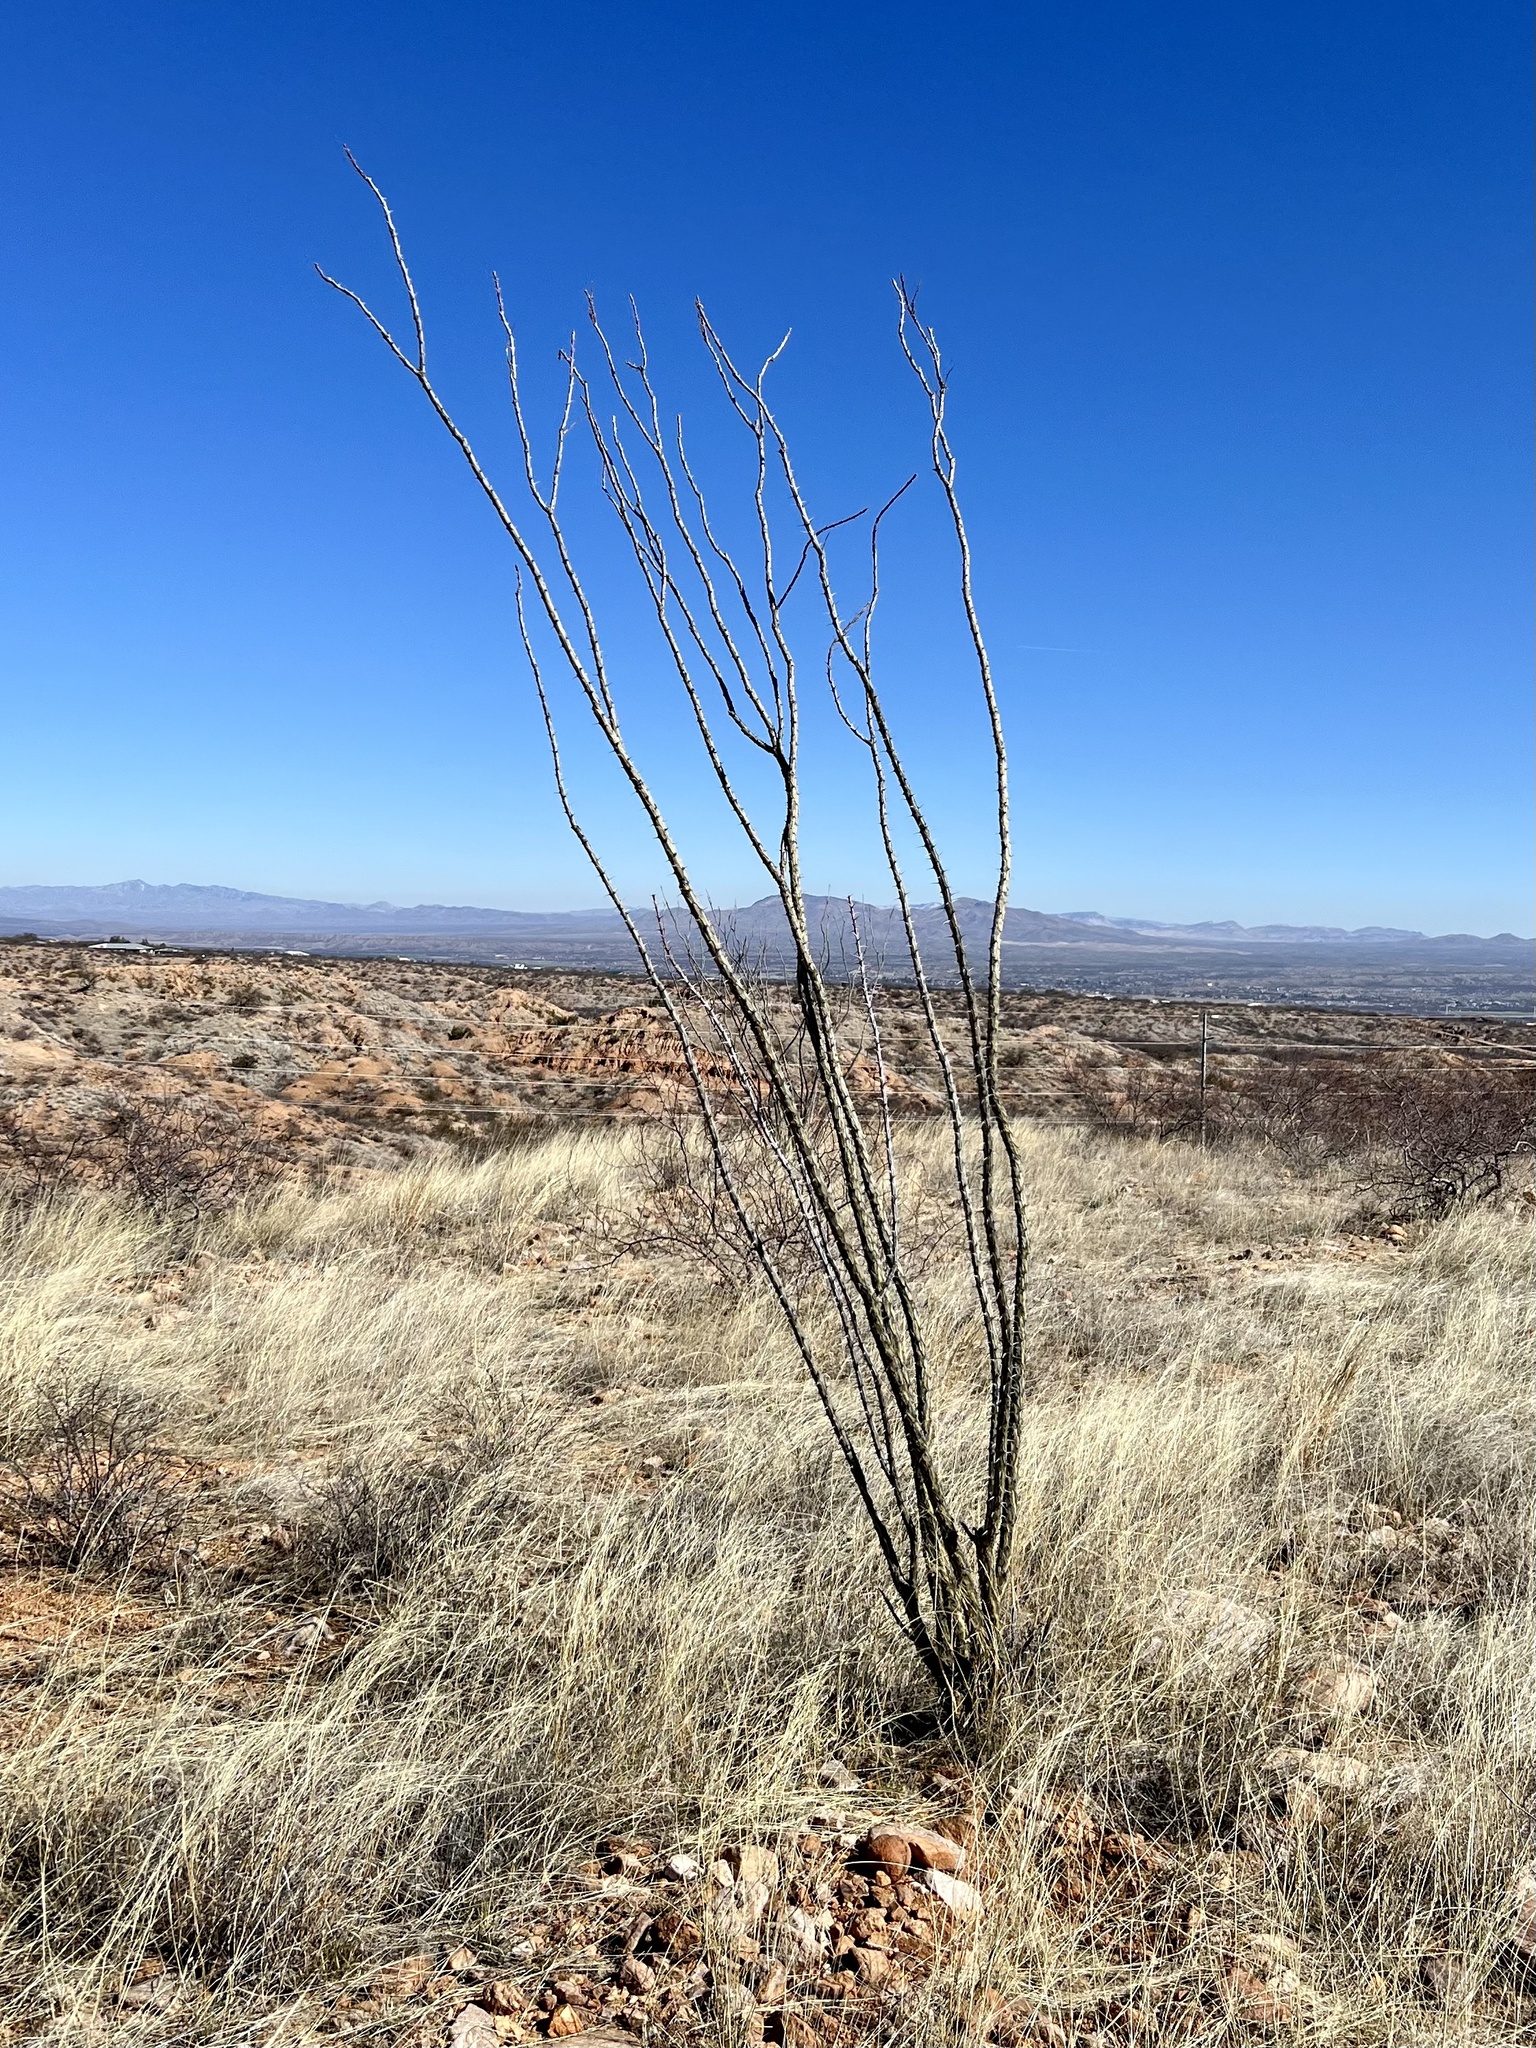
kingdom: Plantae
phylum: Tracheophyta
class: Magnoliopsida
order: Ericales
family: Fouquieriaceae
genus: Fouquieria
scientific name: Fouquieria splendens
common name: Vine-cactus
